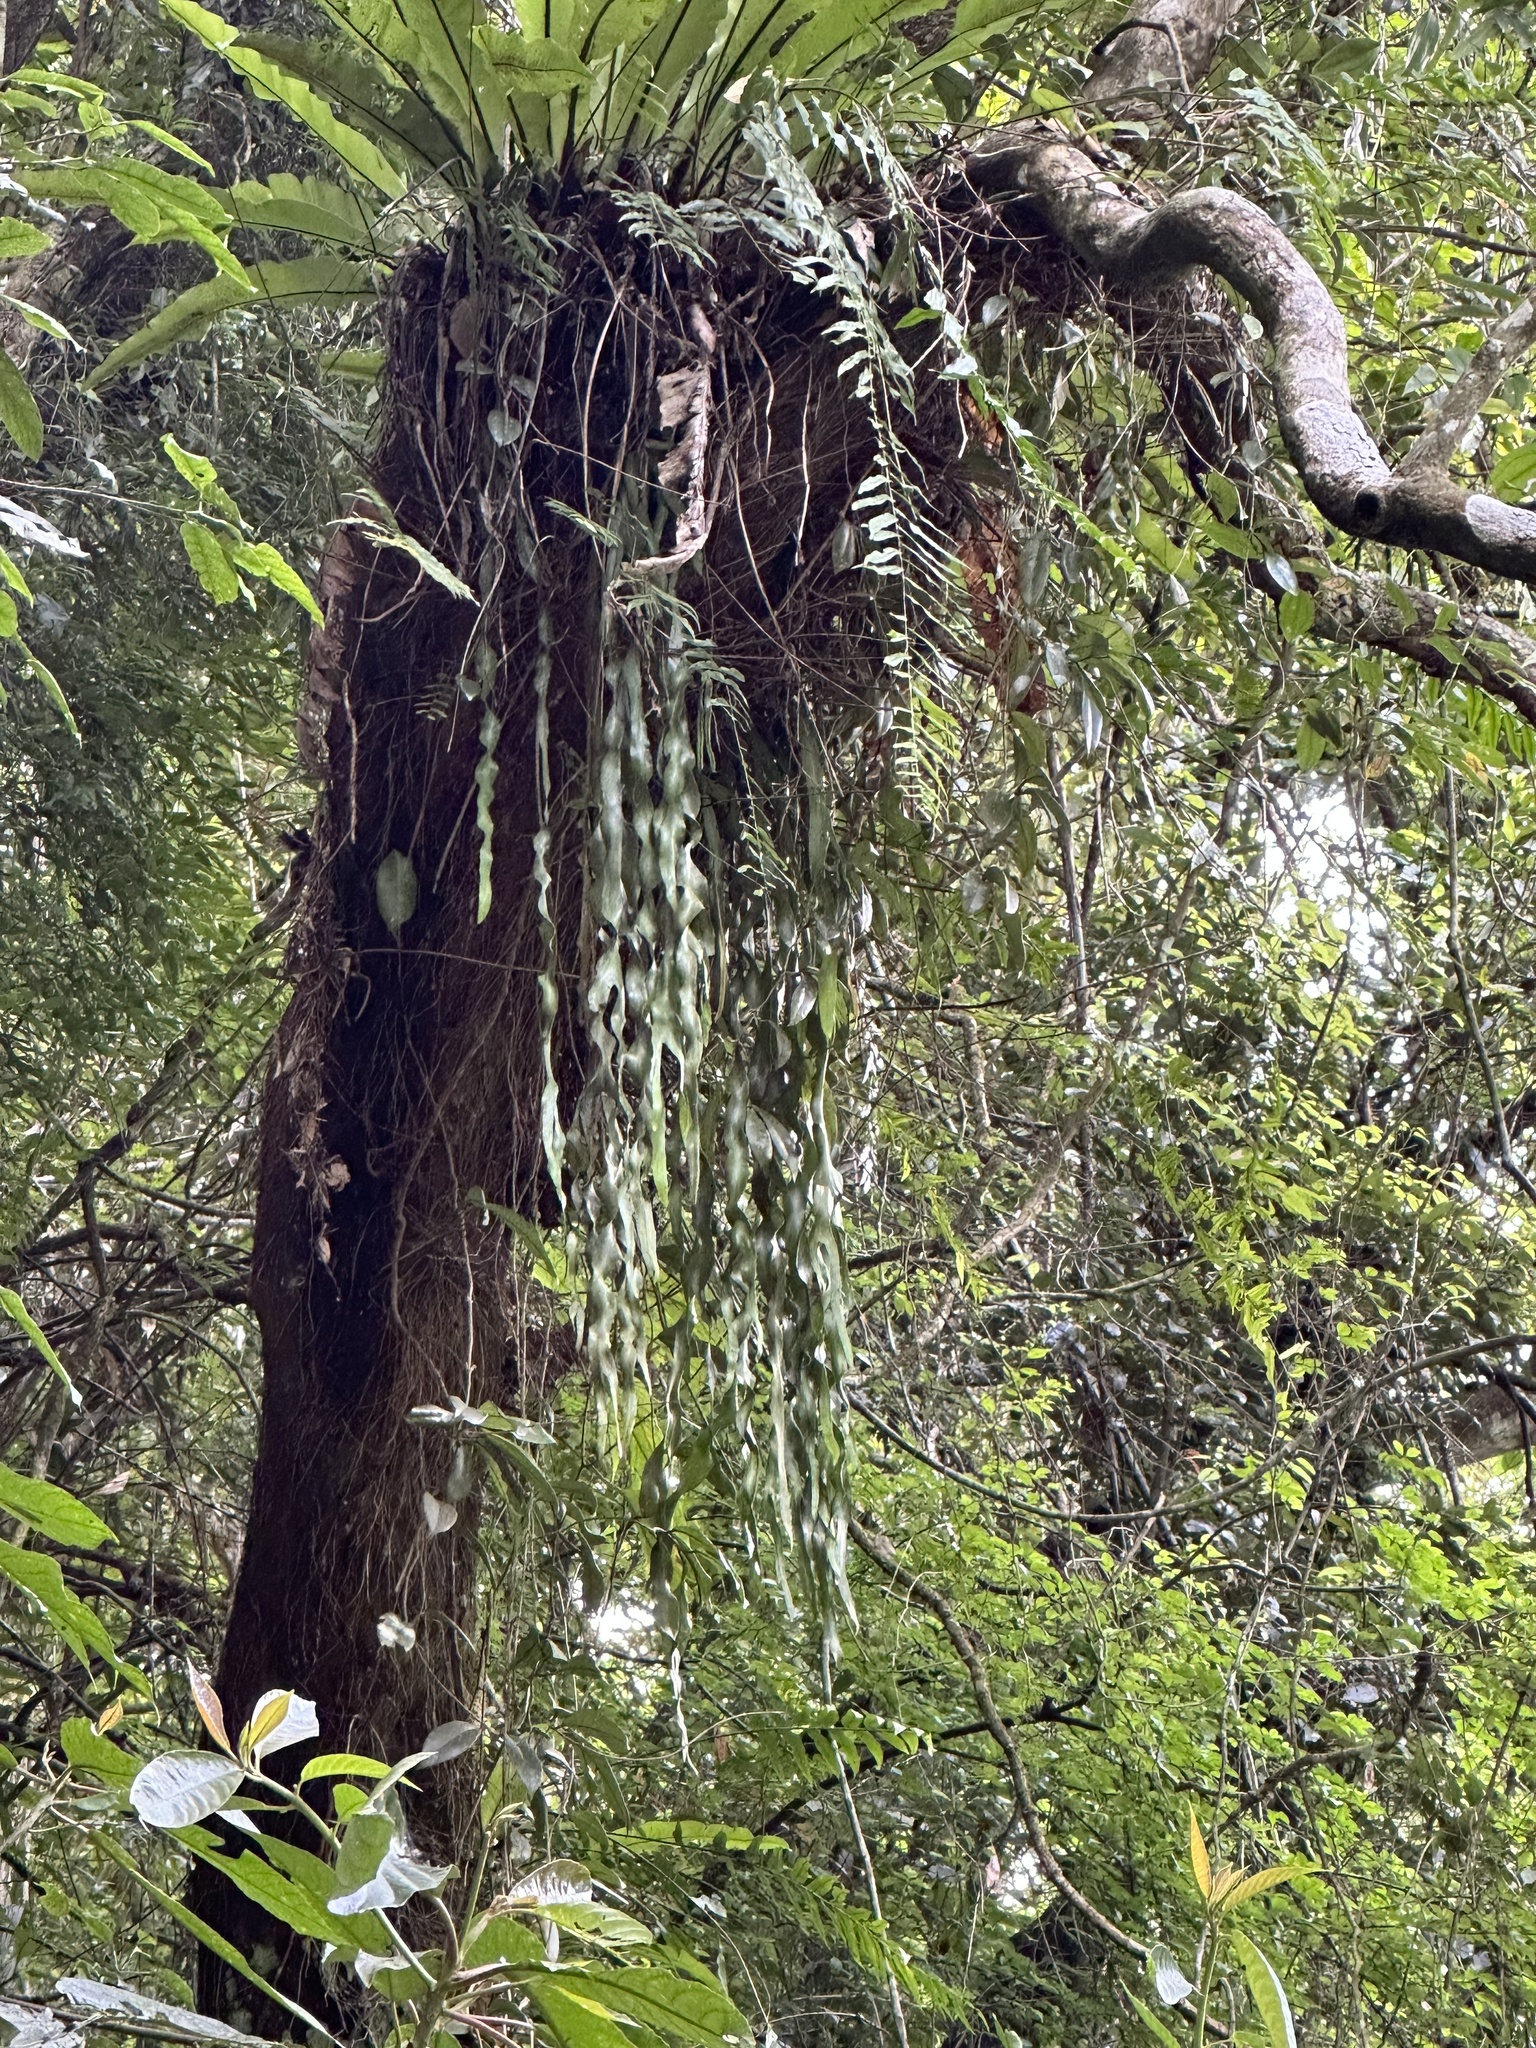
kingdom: Plantae
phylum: Tracheophyta
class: Polypodiopsida
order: Ophioglossales
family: Ophioglossaceae
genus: Ophioderma
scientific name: Ophioderma pendulum
